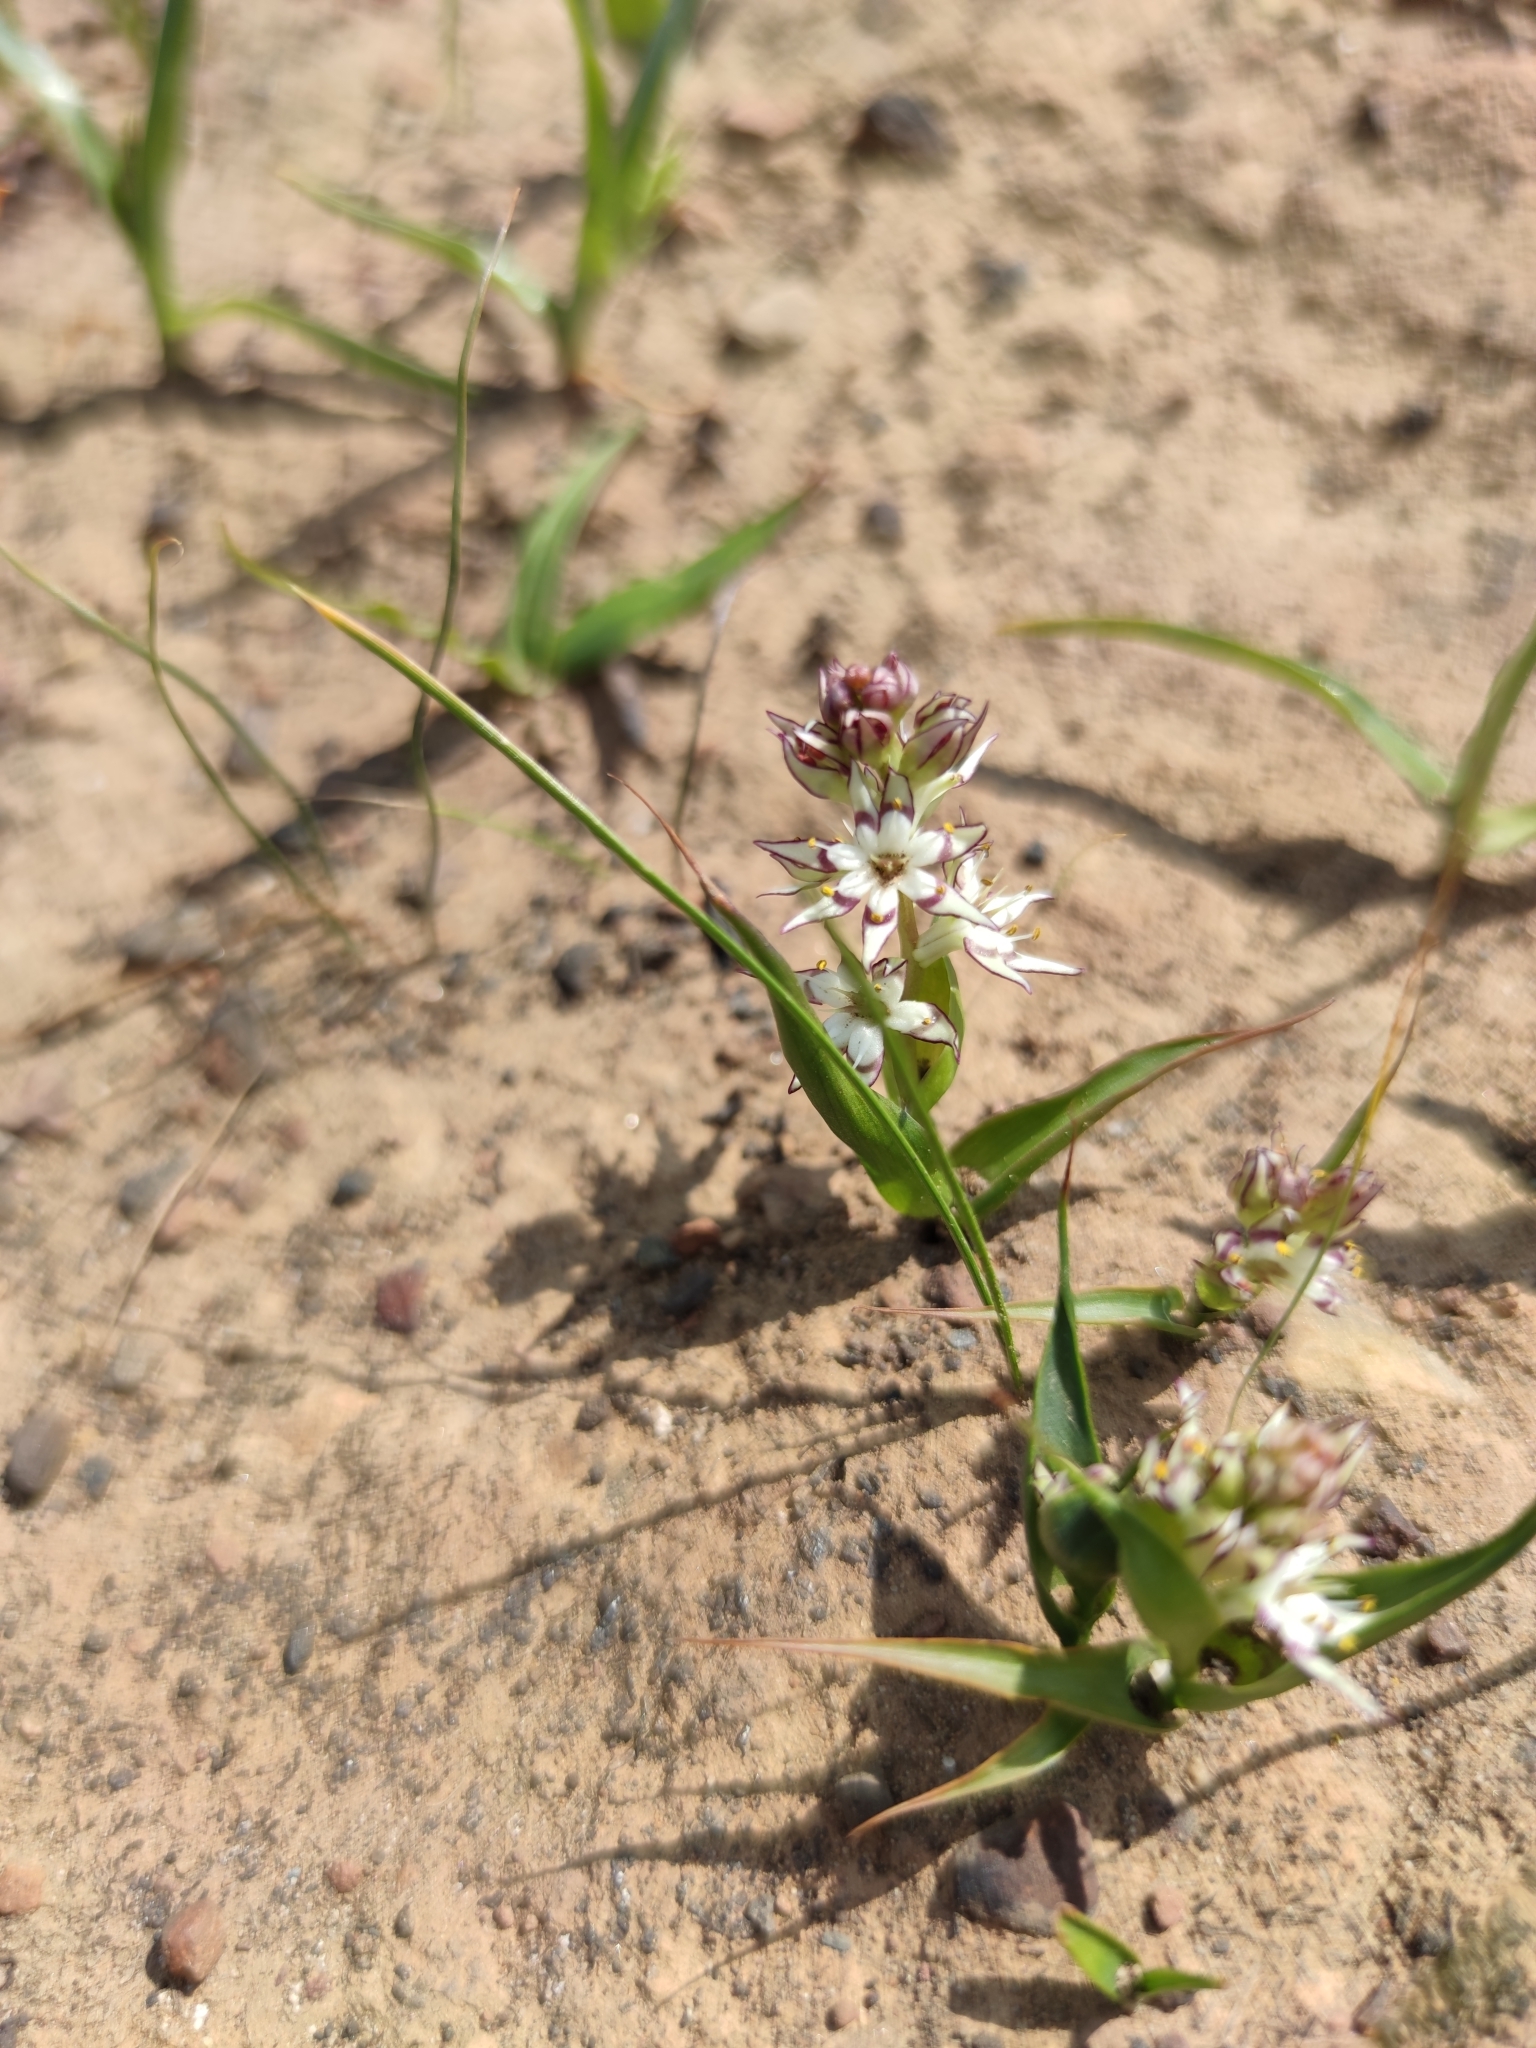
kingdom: Plantae
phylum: Tracheophyta
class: Liliopsida
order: Liliales
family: Colchicaceae
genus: Wurmbea
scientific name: Wurmbea variabilis
